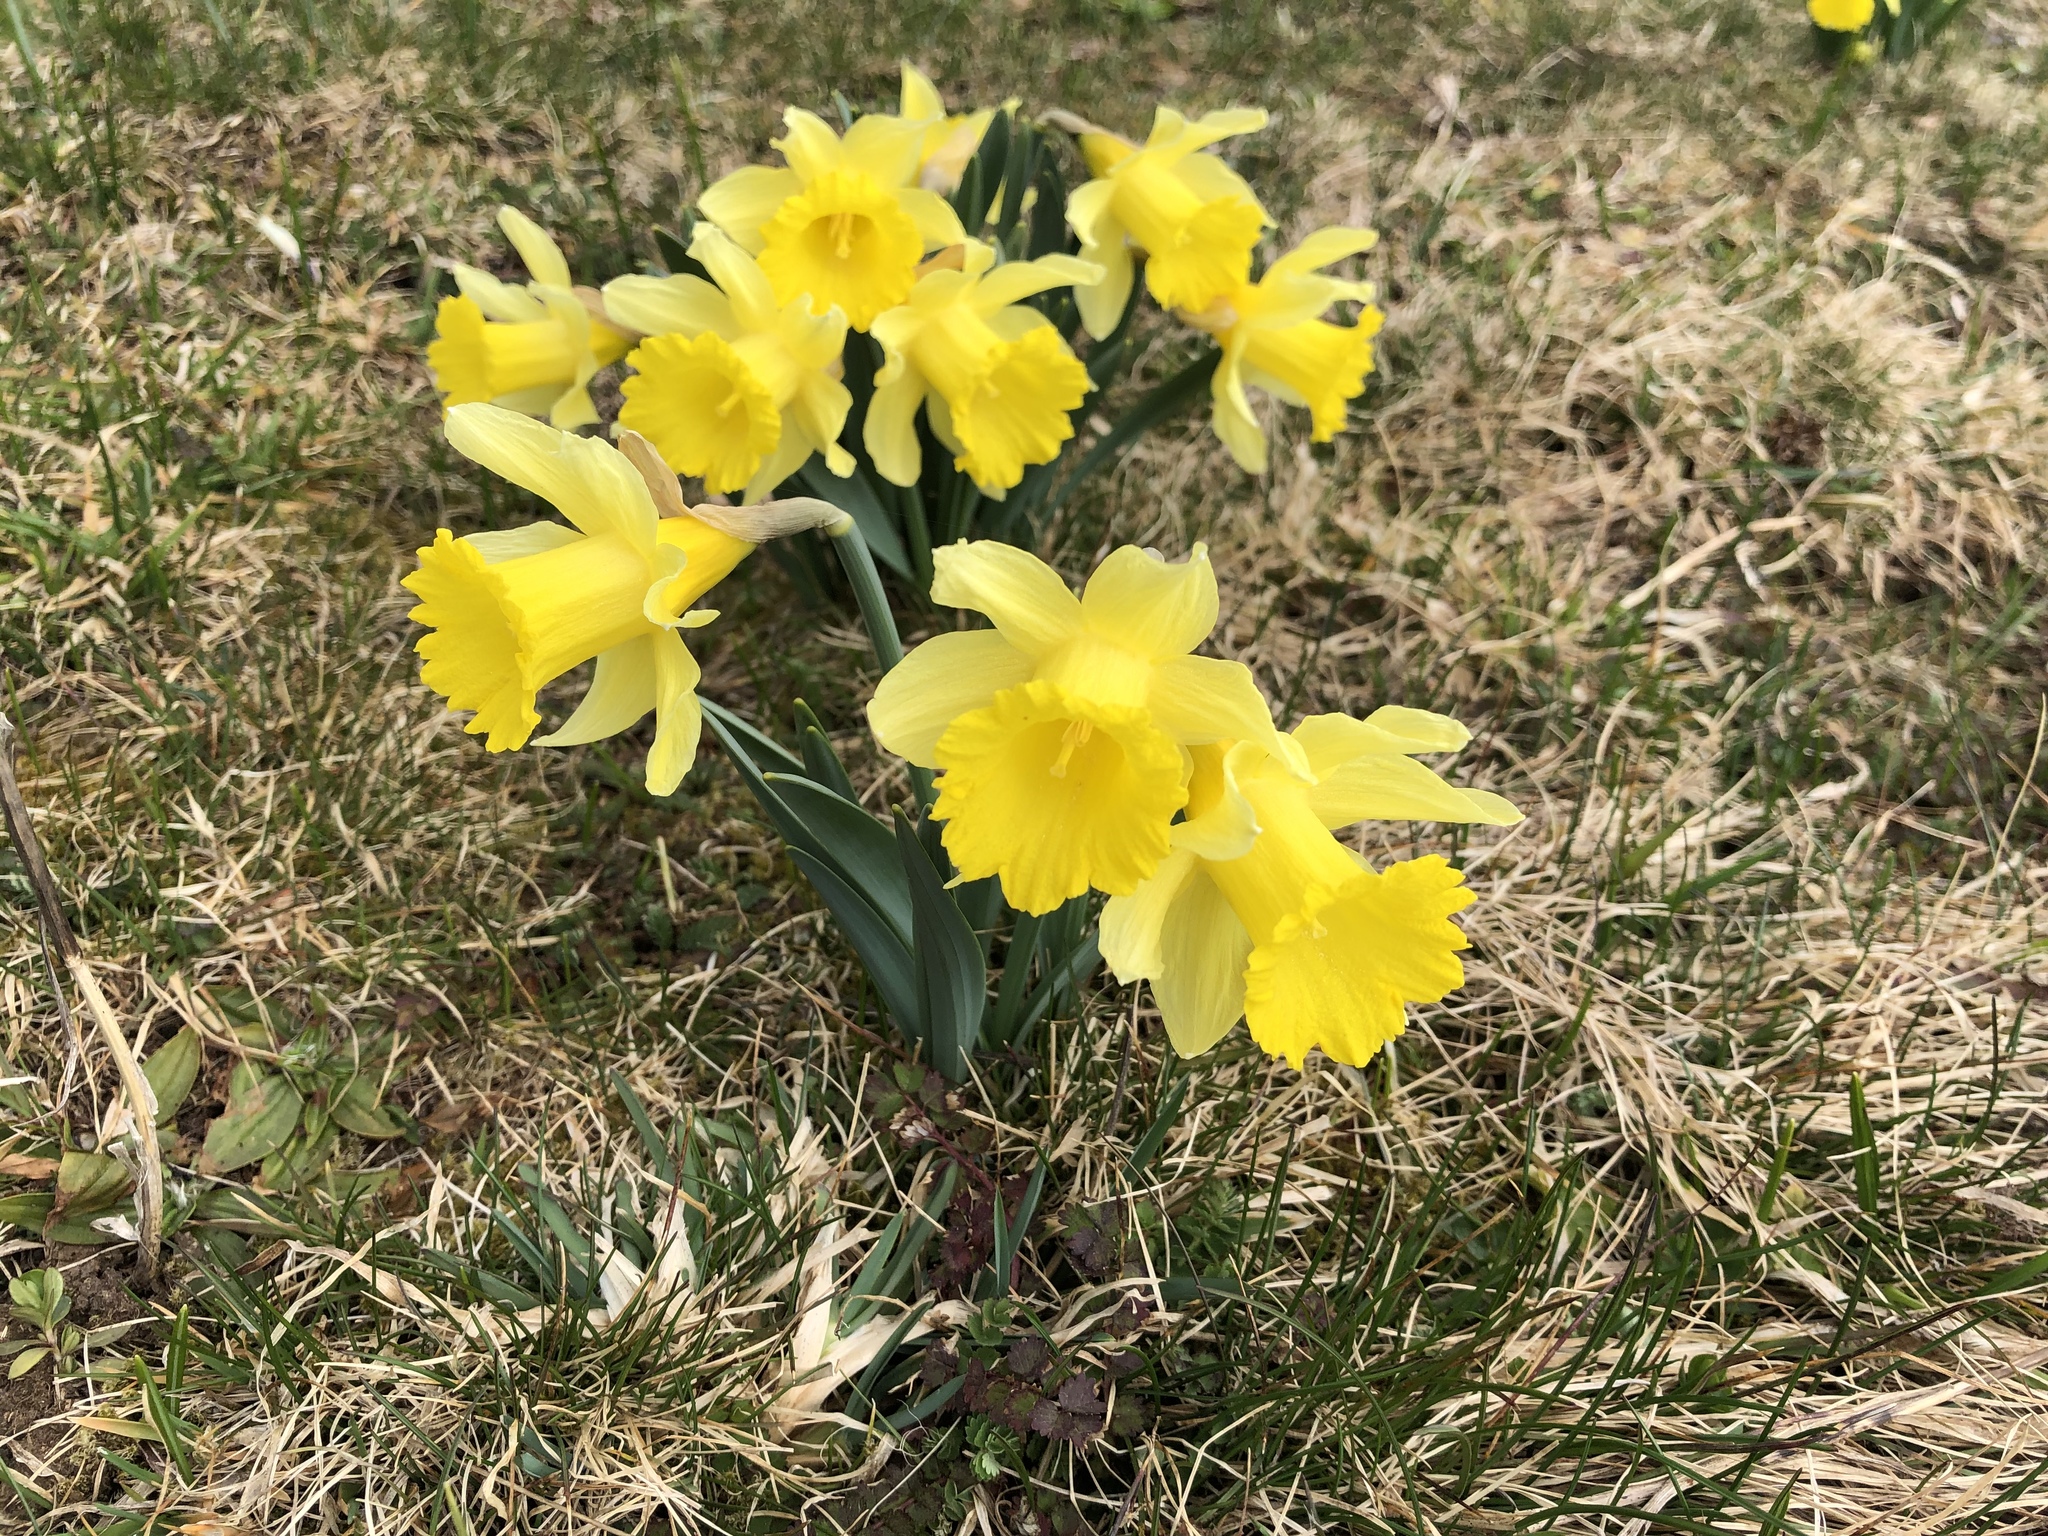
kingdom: Plantae
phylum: Tracheophyta
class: Liliopsida
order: Asparagales
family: Amaryllidaceae
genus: Narcissus
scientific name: Narcissus pseudonarcissus
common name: Daffodil
